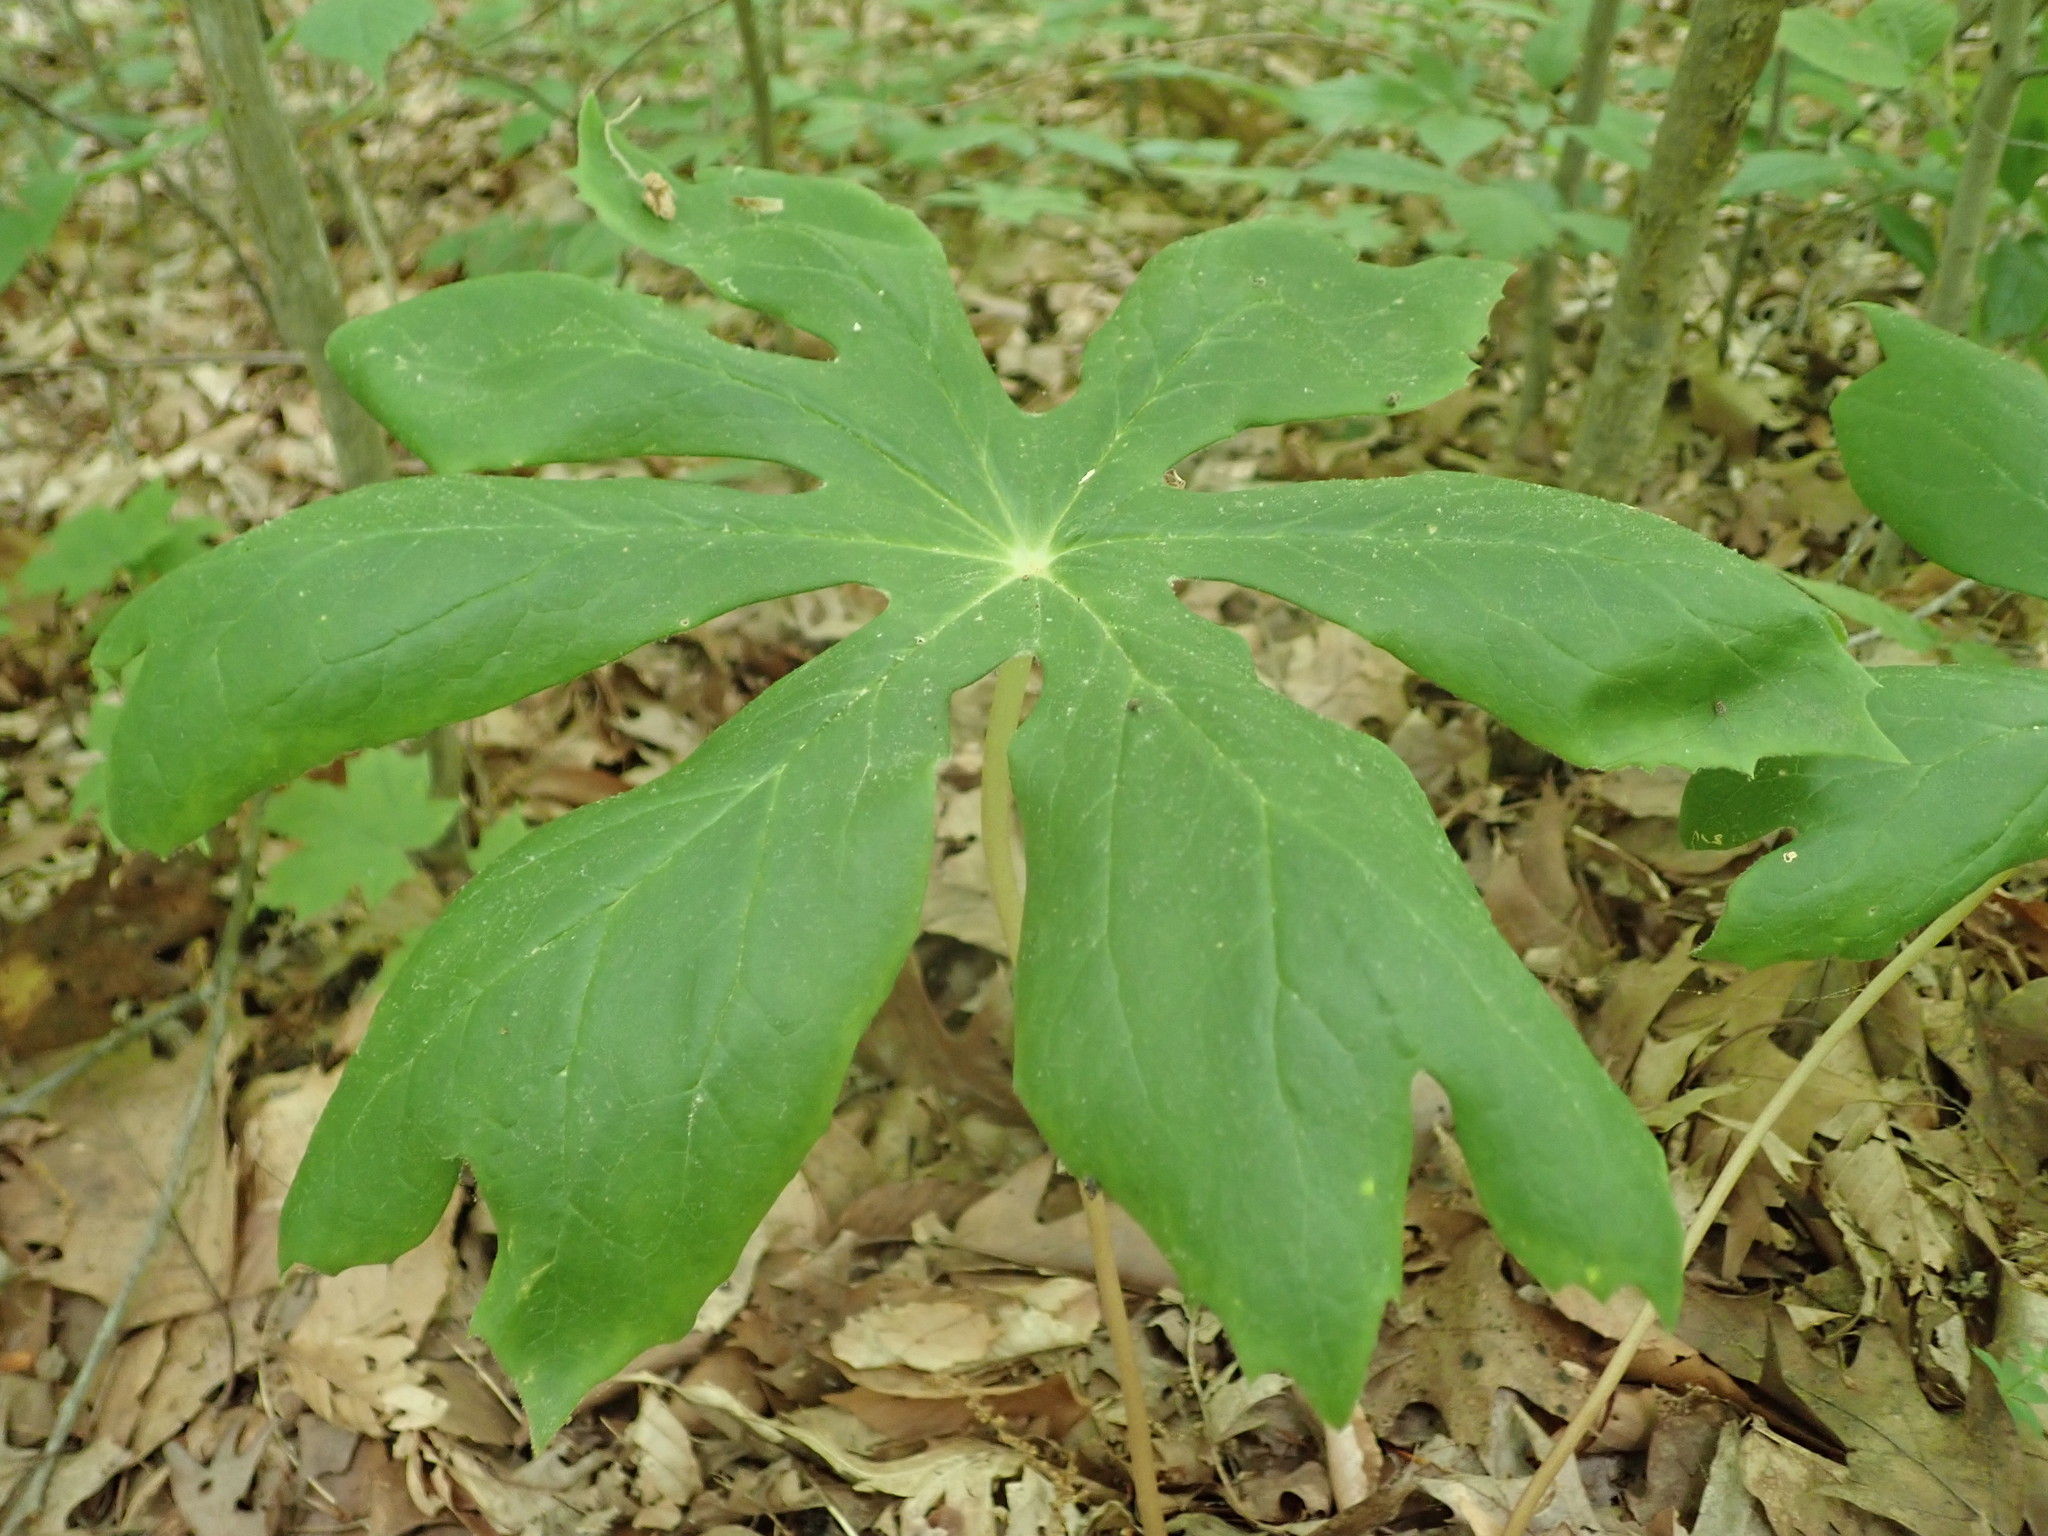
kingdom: Plantae
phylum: Tracheophyta
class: Magnoliopsida
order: Ranunculales
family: Berberidaceae
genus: Podophyllum
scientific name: Podophyllum peltatum
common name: Wild mandrake
